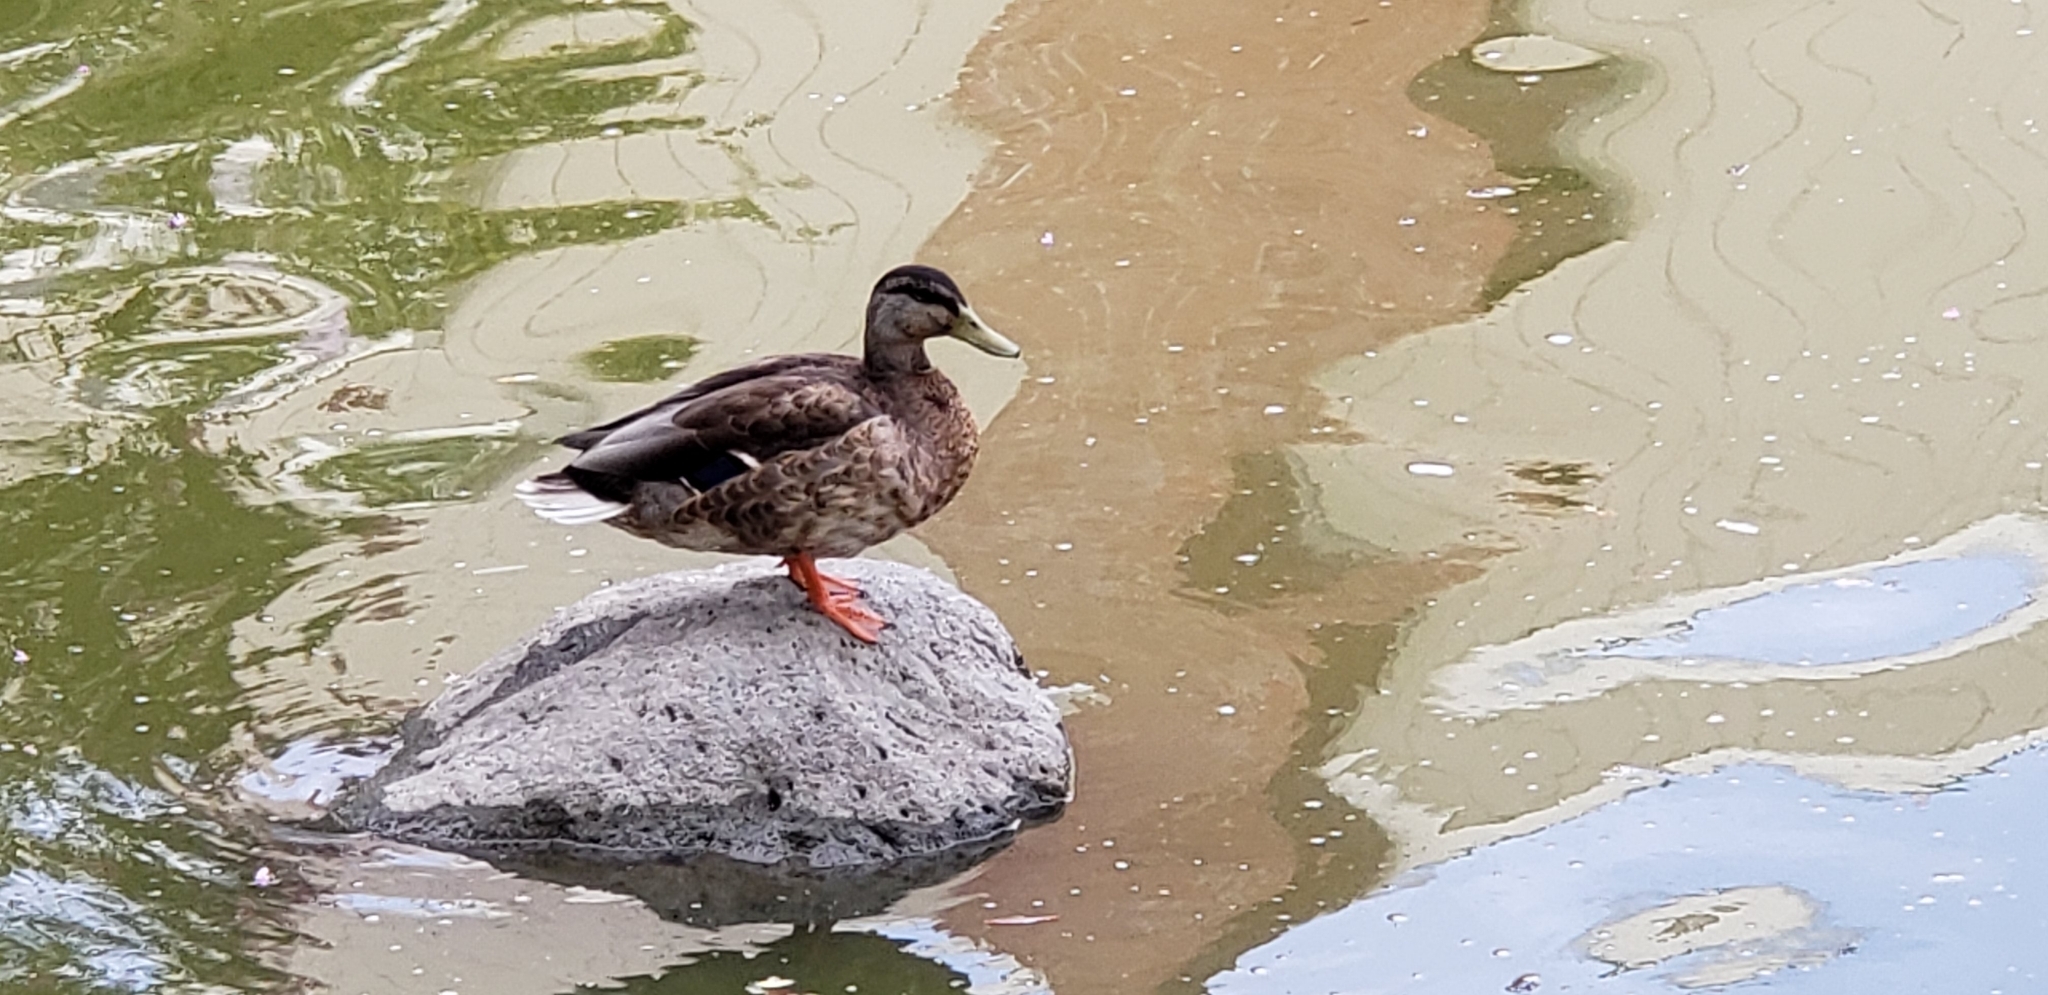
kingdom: Animalia
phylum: Chordata
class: Aves
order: Anseriformes
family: Anatidae
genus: Anas
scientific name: Anas platyrhynchos
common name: Mallard
